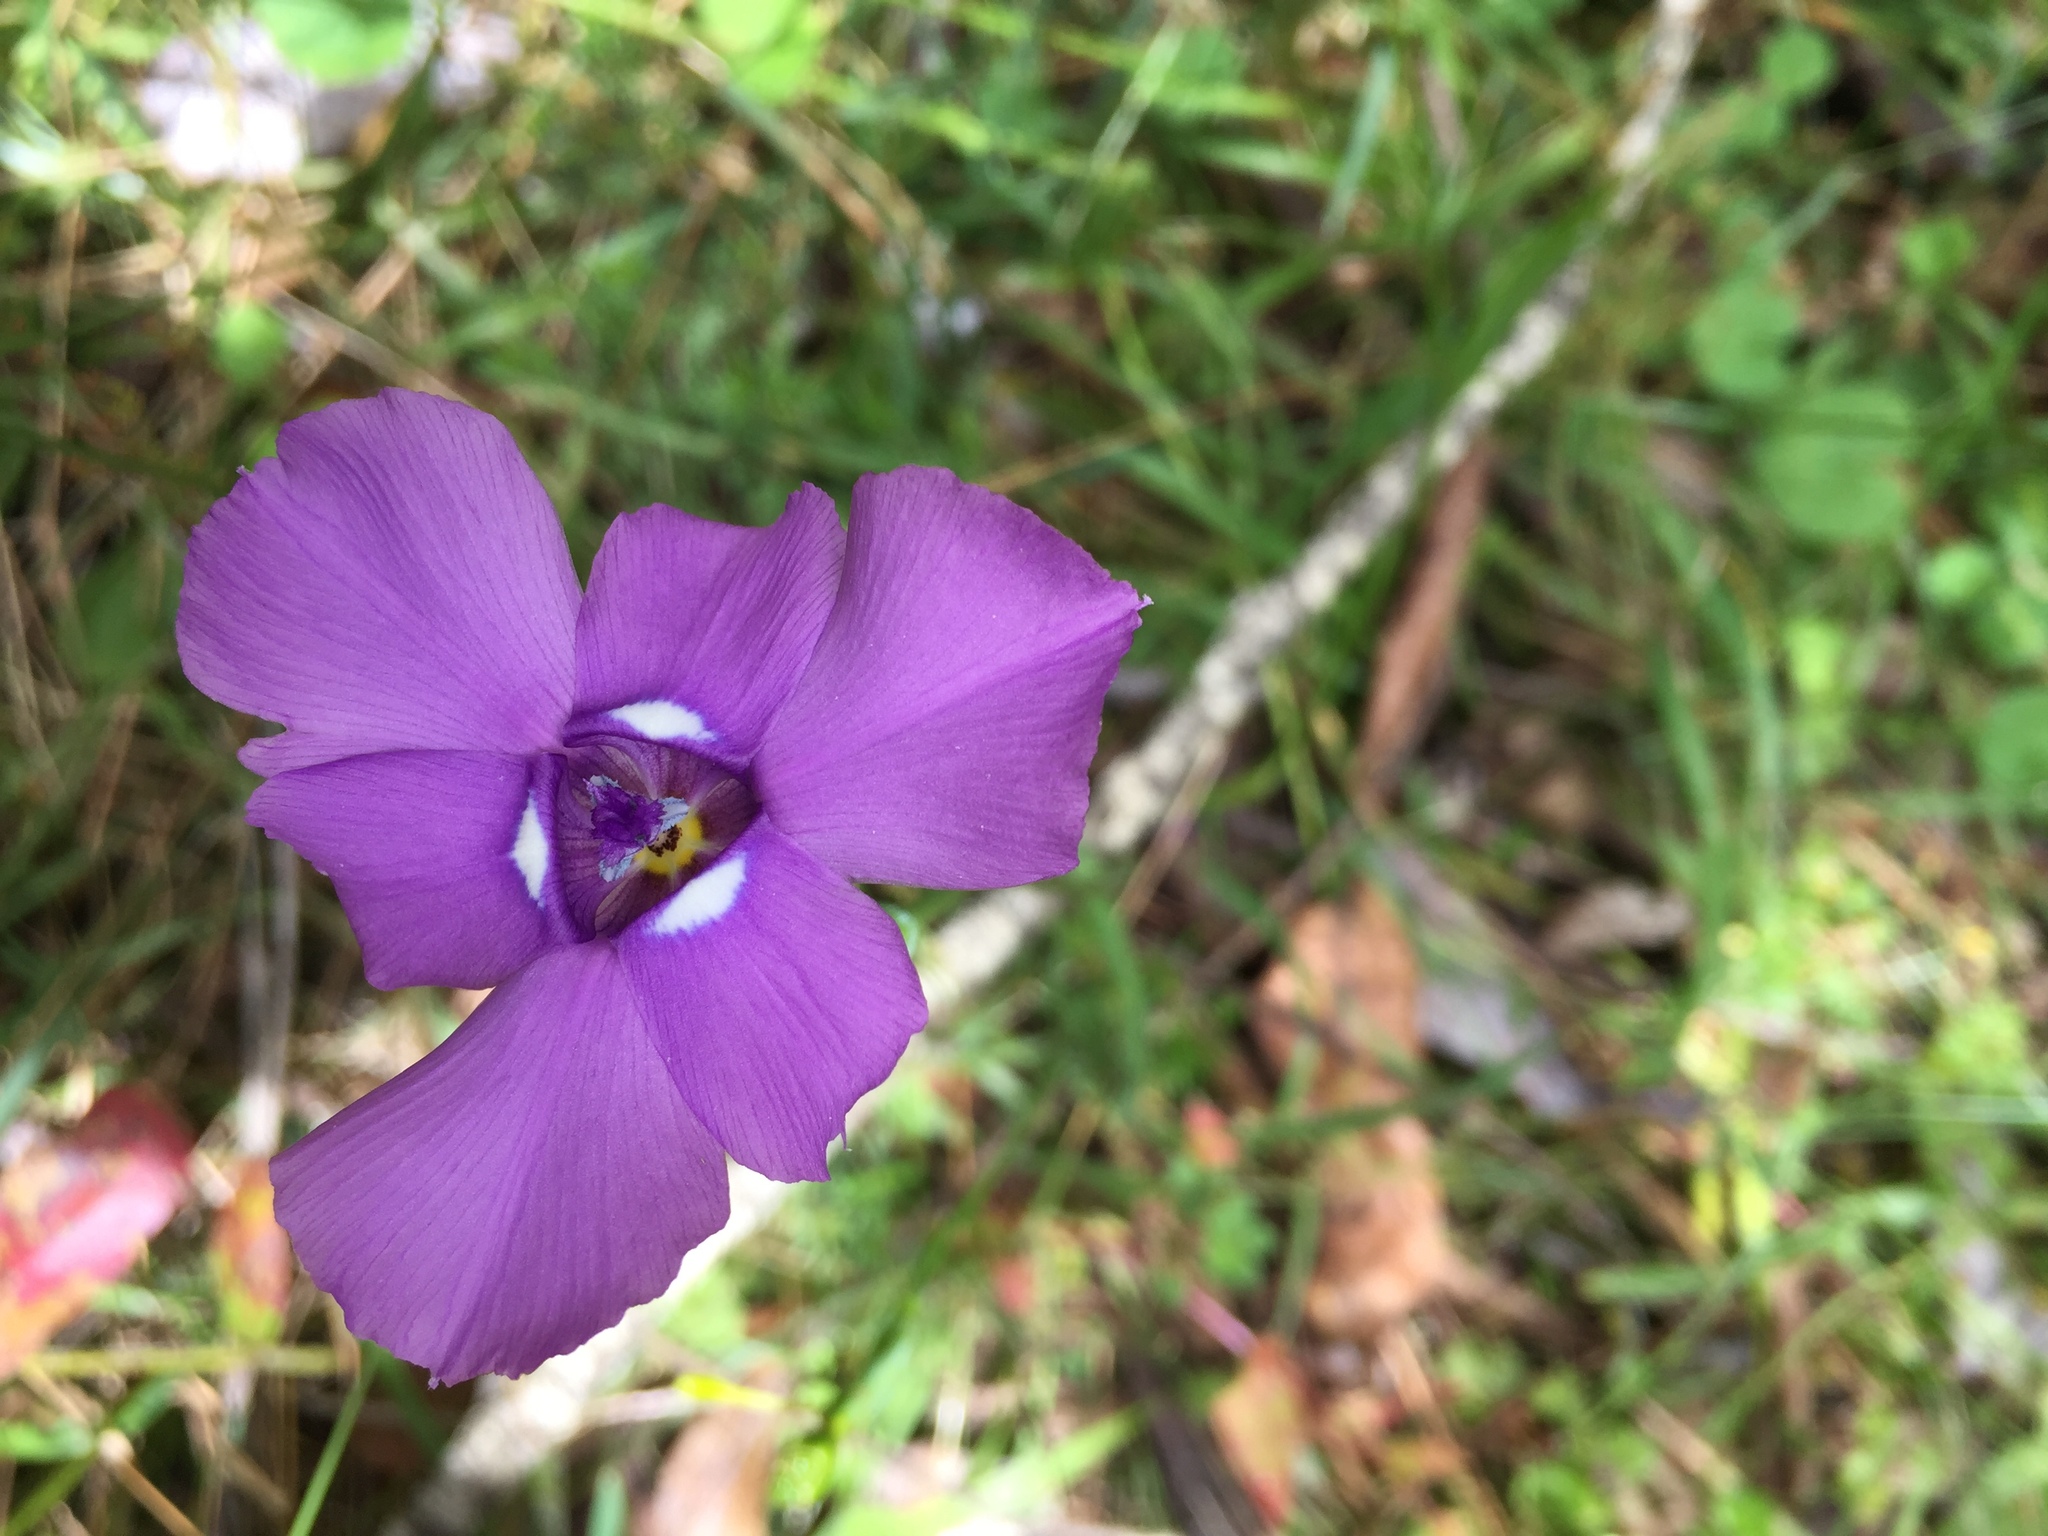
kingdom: Plantae
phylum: Tracheophyta
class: Liliopsida
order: Asparagales
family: Iridaceae
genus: Ennealophus
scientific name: Ennealophus foliosus
